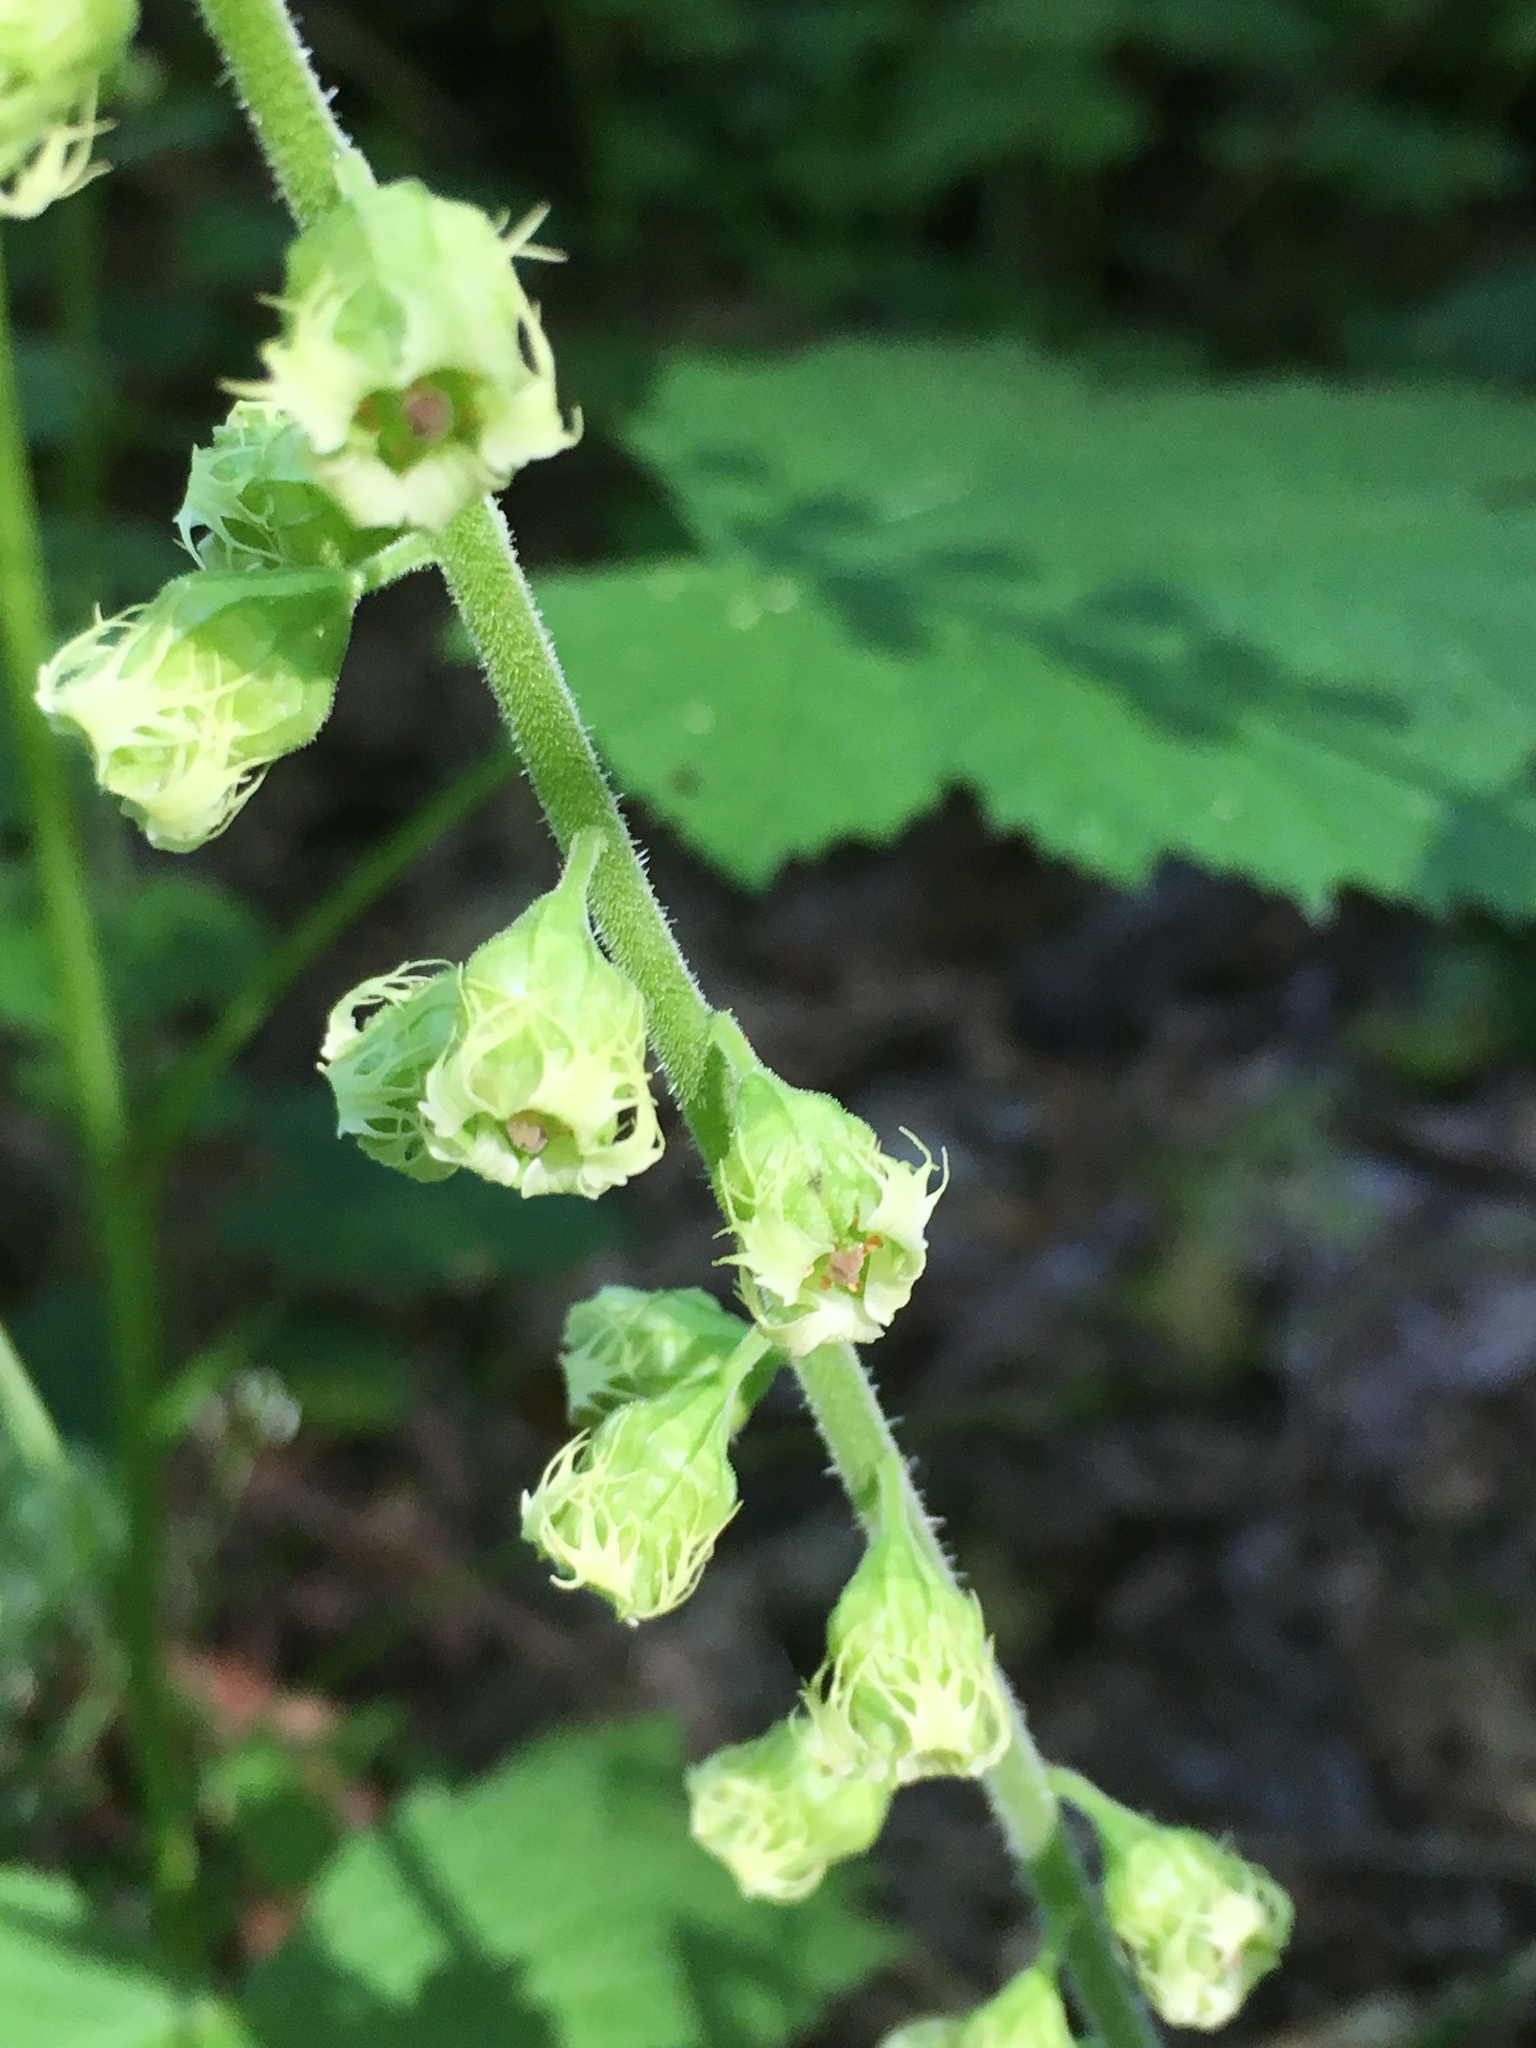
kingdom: Plantae
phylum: Tracheophyta
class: Magnoliopsida
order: Saxifragales
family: Saxifragaceae
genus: Tellima
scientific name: Tellima grandiflora
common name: Fringecups
